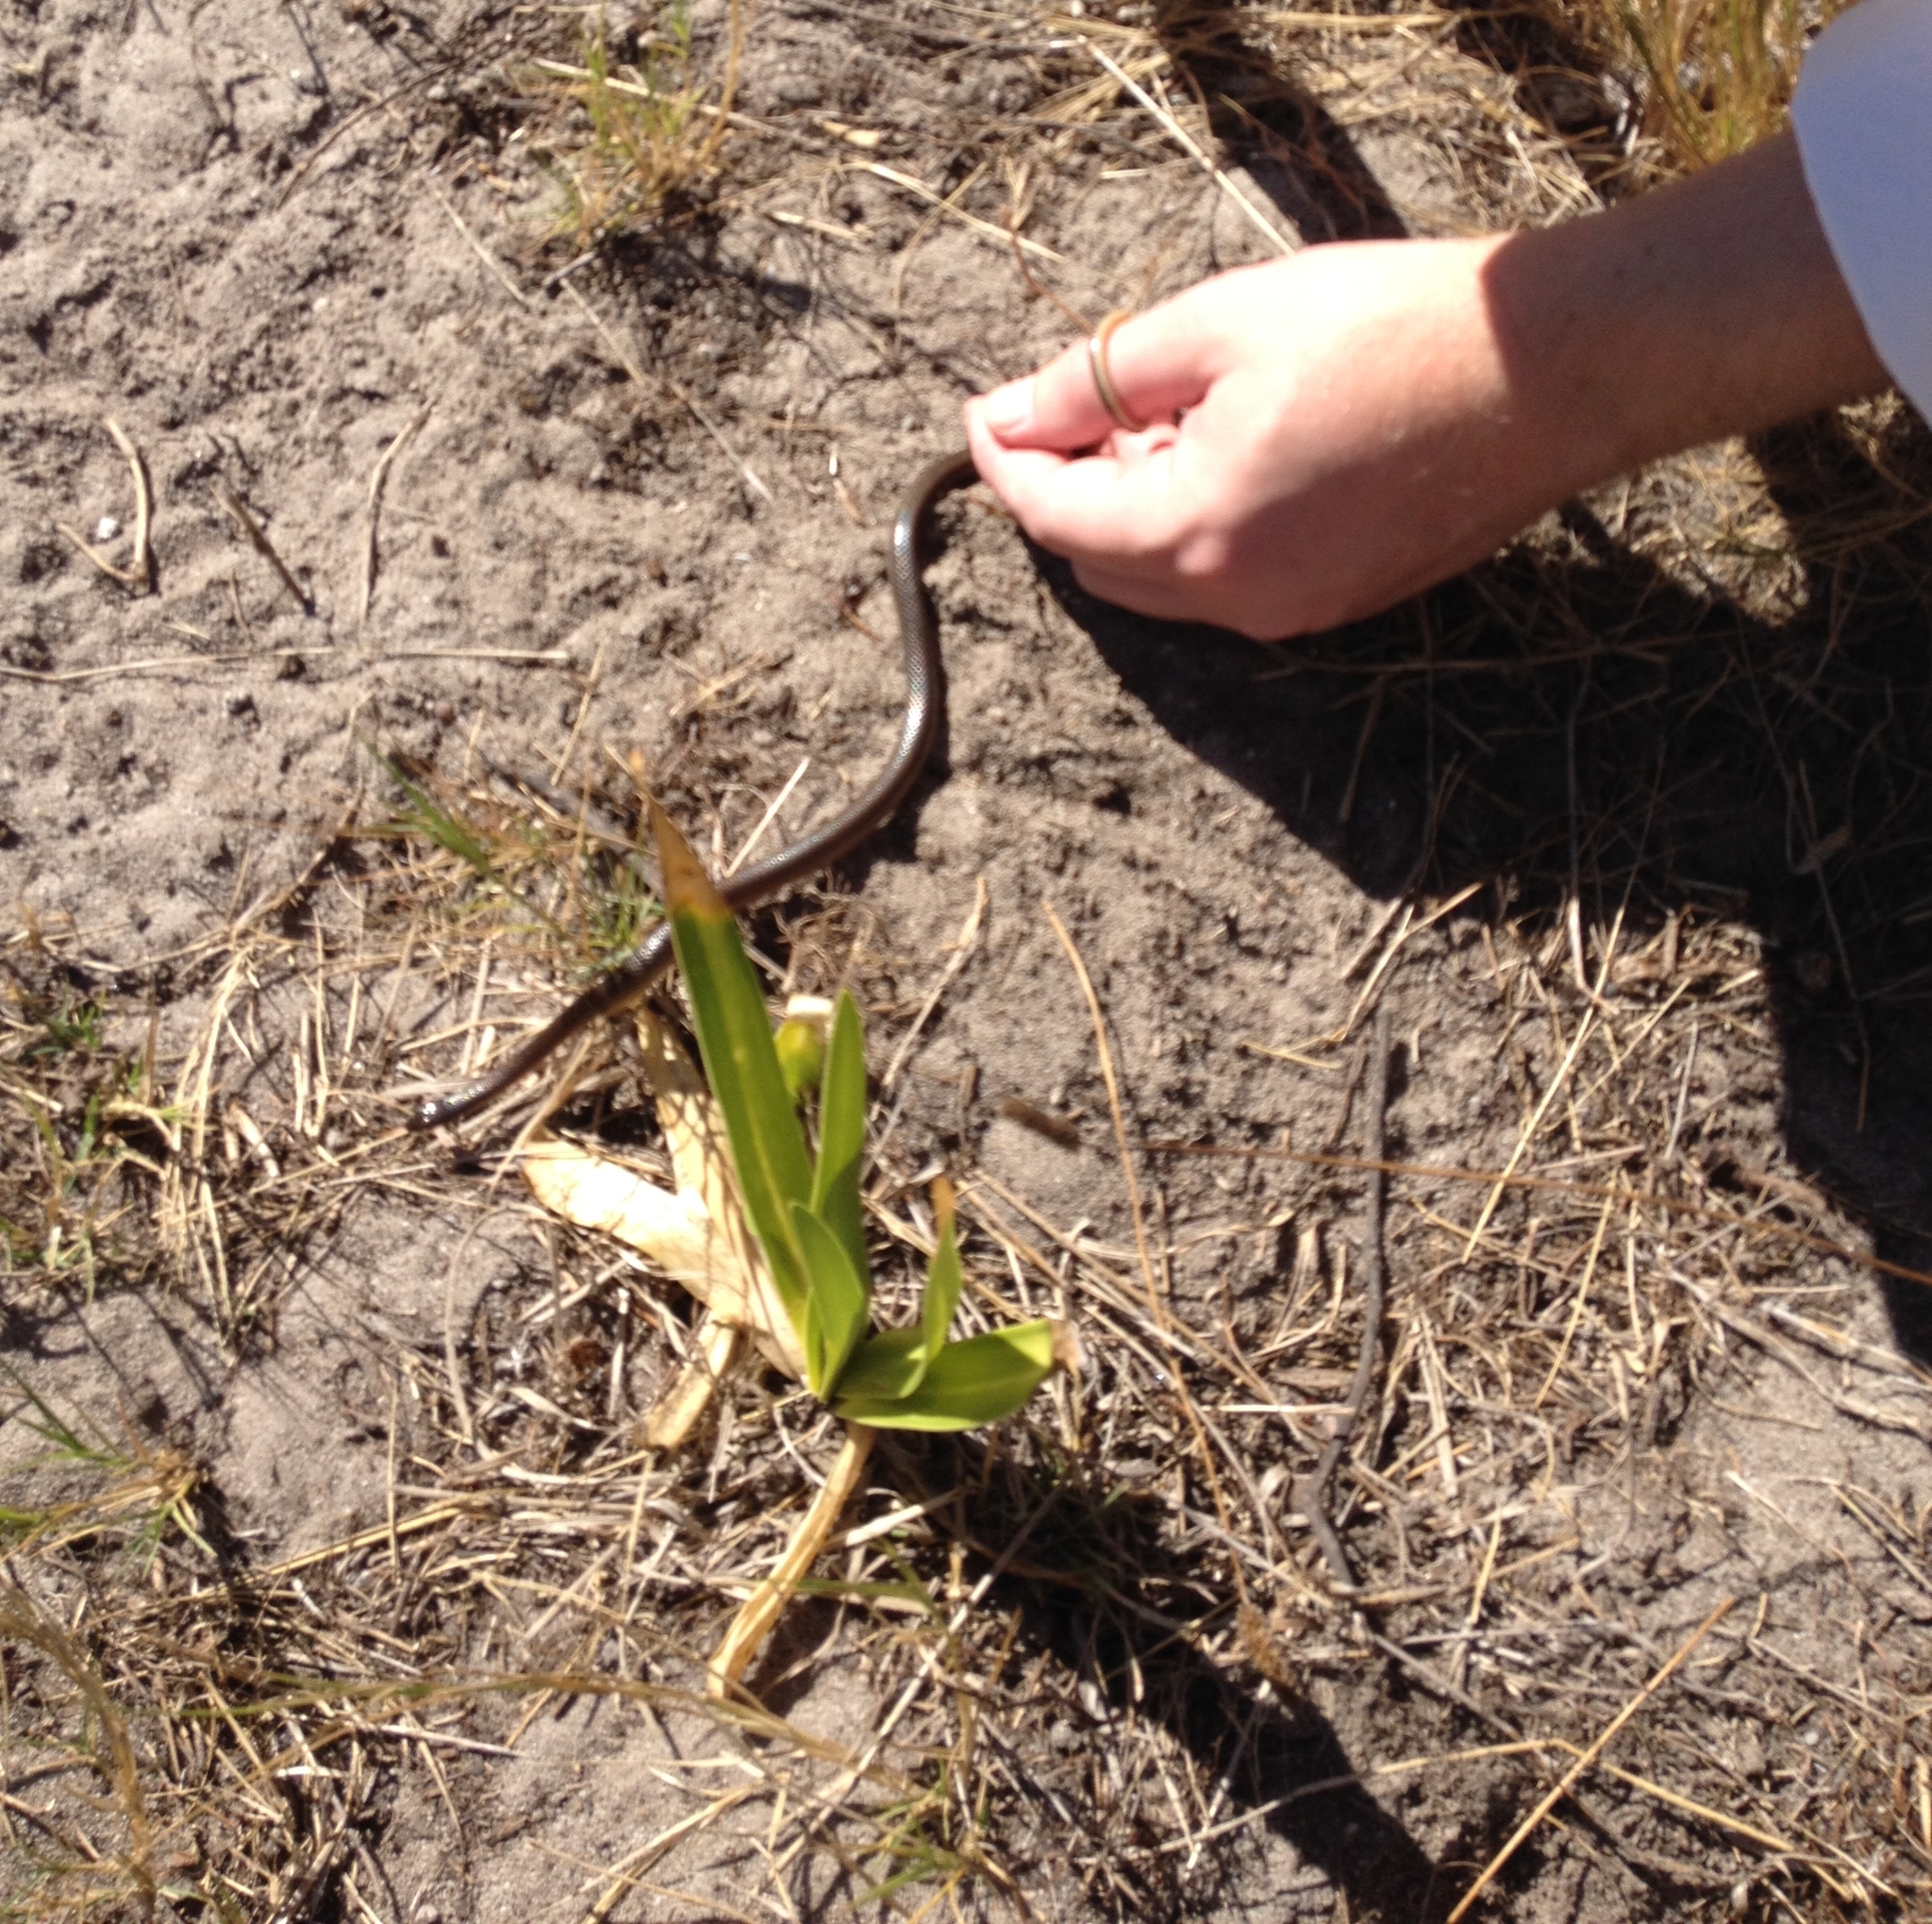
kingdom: Animalia
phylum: Chordata
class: Squamata
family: Lamprophiidae
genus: Lycodonomorphus
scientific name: Lycodonomorphus rufulus
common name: Brown water snake
